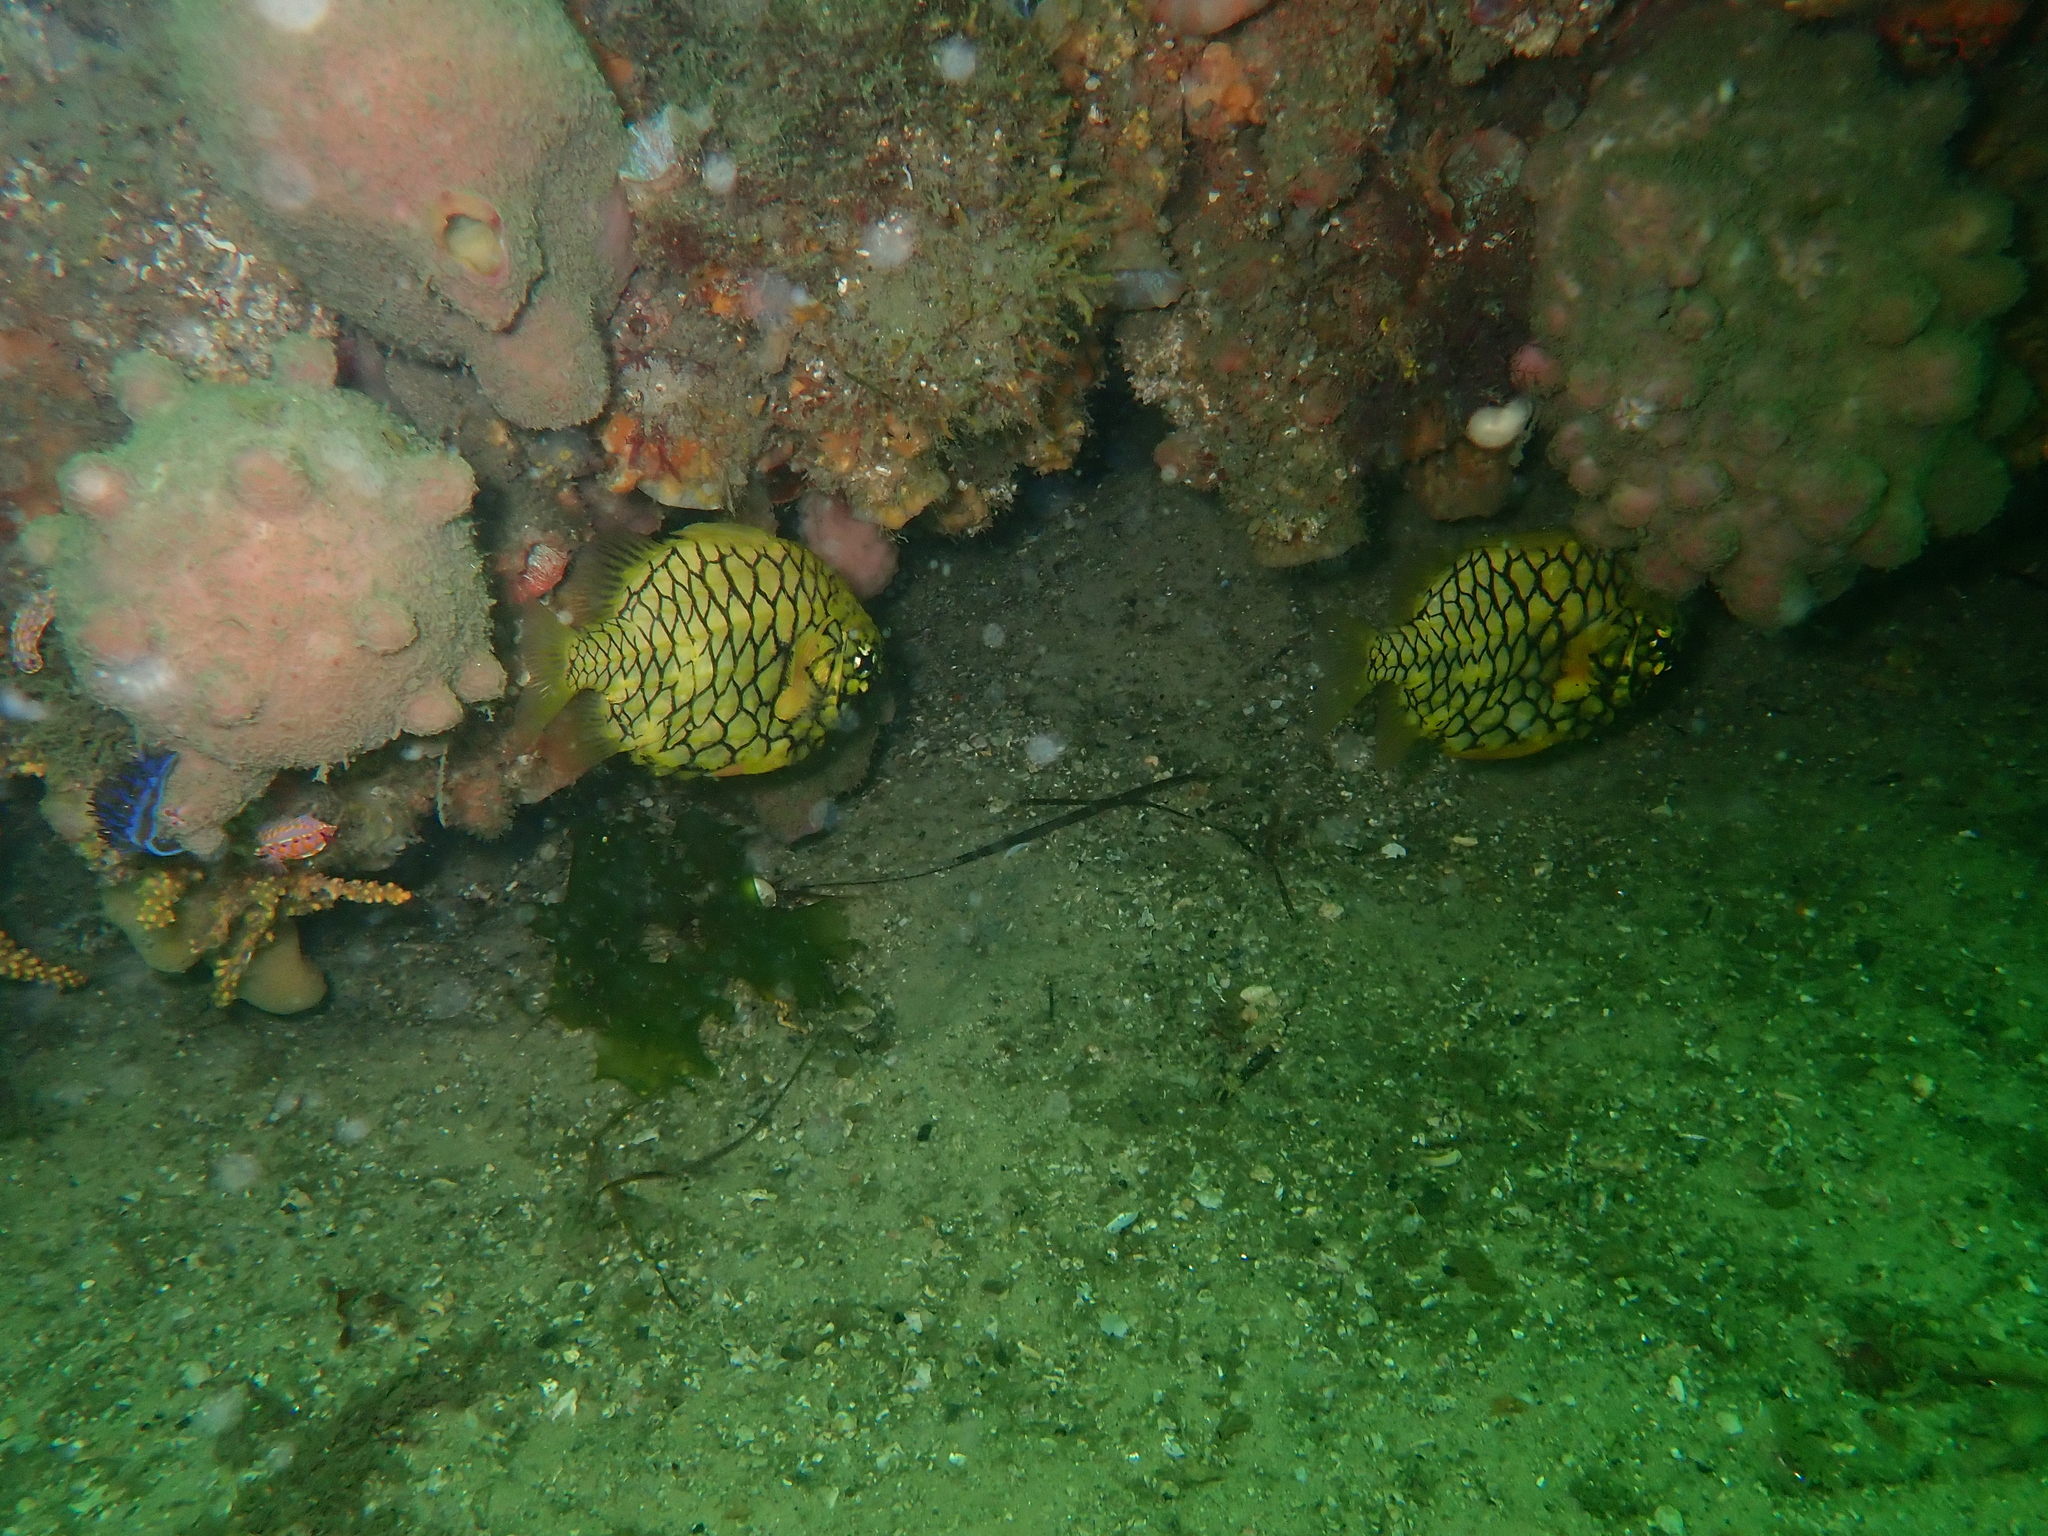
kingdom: Animalia
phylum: Chordata
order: Beryciformes
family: Monocentridae
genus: Cleidopus
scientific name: Cleidopus gloriamaris
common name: Mailfish
